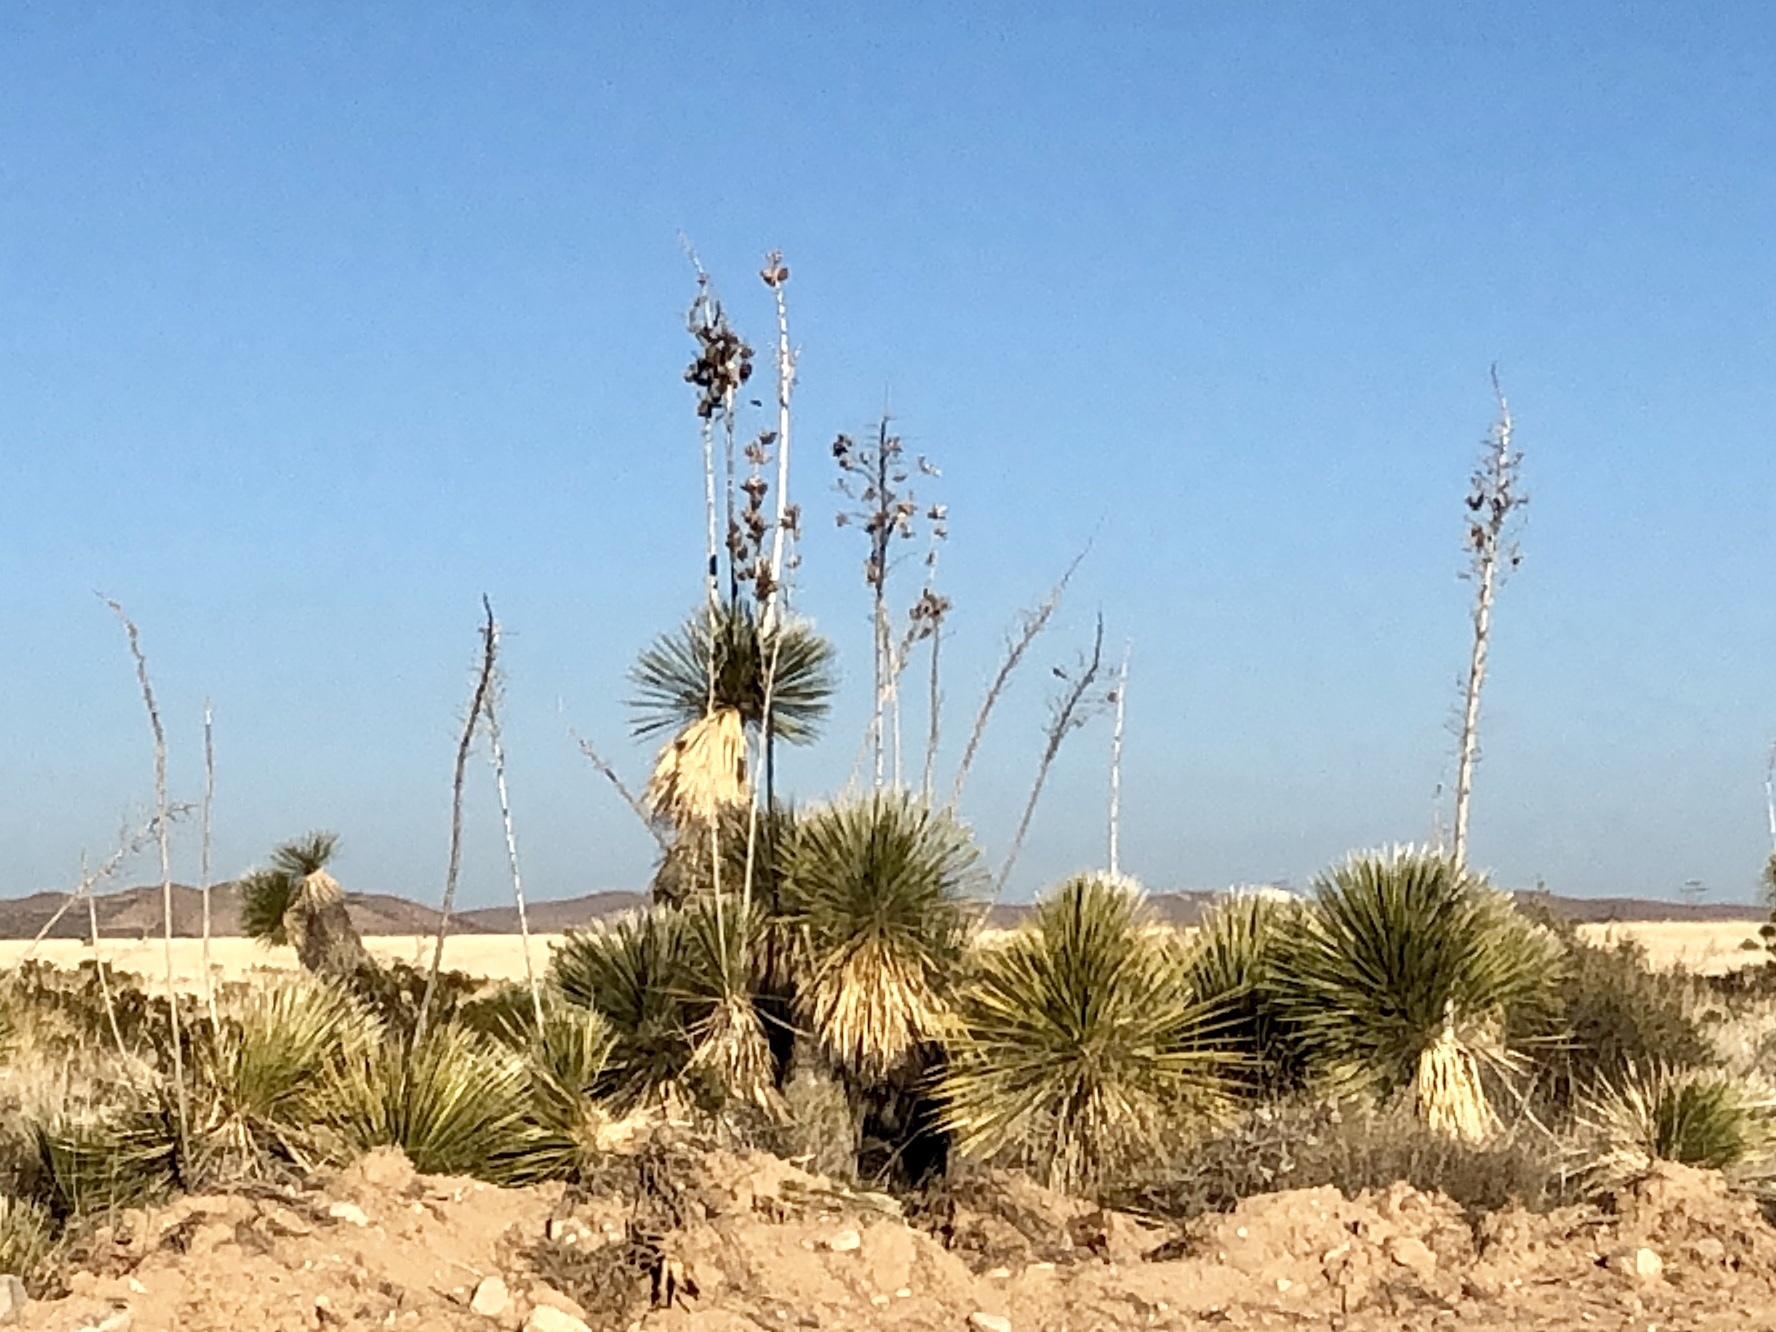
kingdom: Plantae
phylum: Tracheophyta
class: Liliopsida
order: Asparagales
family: Asparagaceae
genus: Yucca
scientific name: Yucca elata
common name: Palmella
